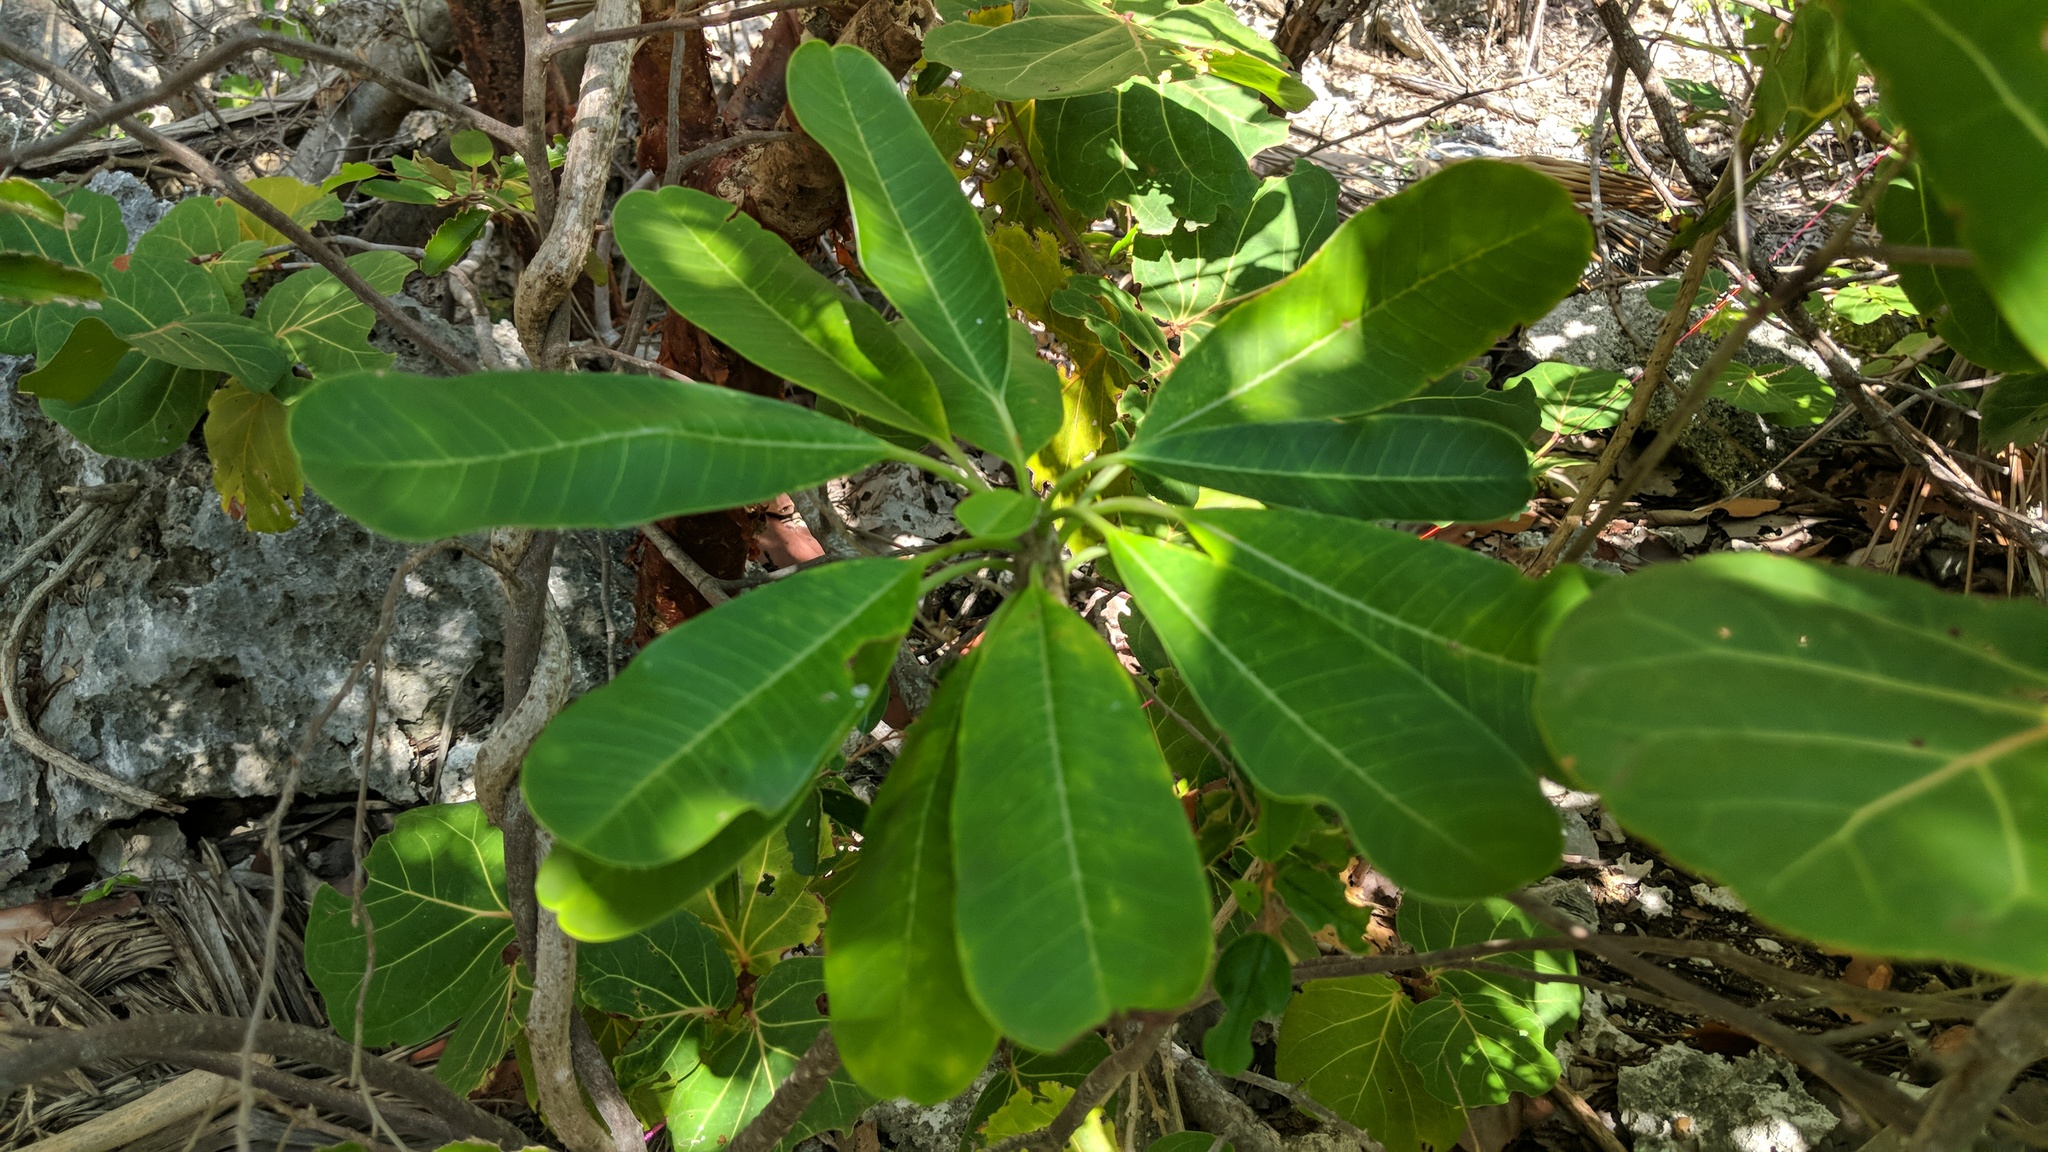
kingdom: Plantae
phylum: Tracheophyta
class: Magnoliopsida
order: Gentianales
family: Apocynaceae
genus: Plumeria
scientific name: Plumeria obtusa
